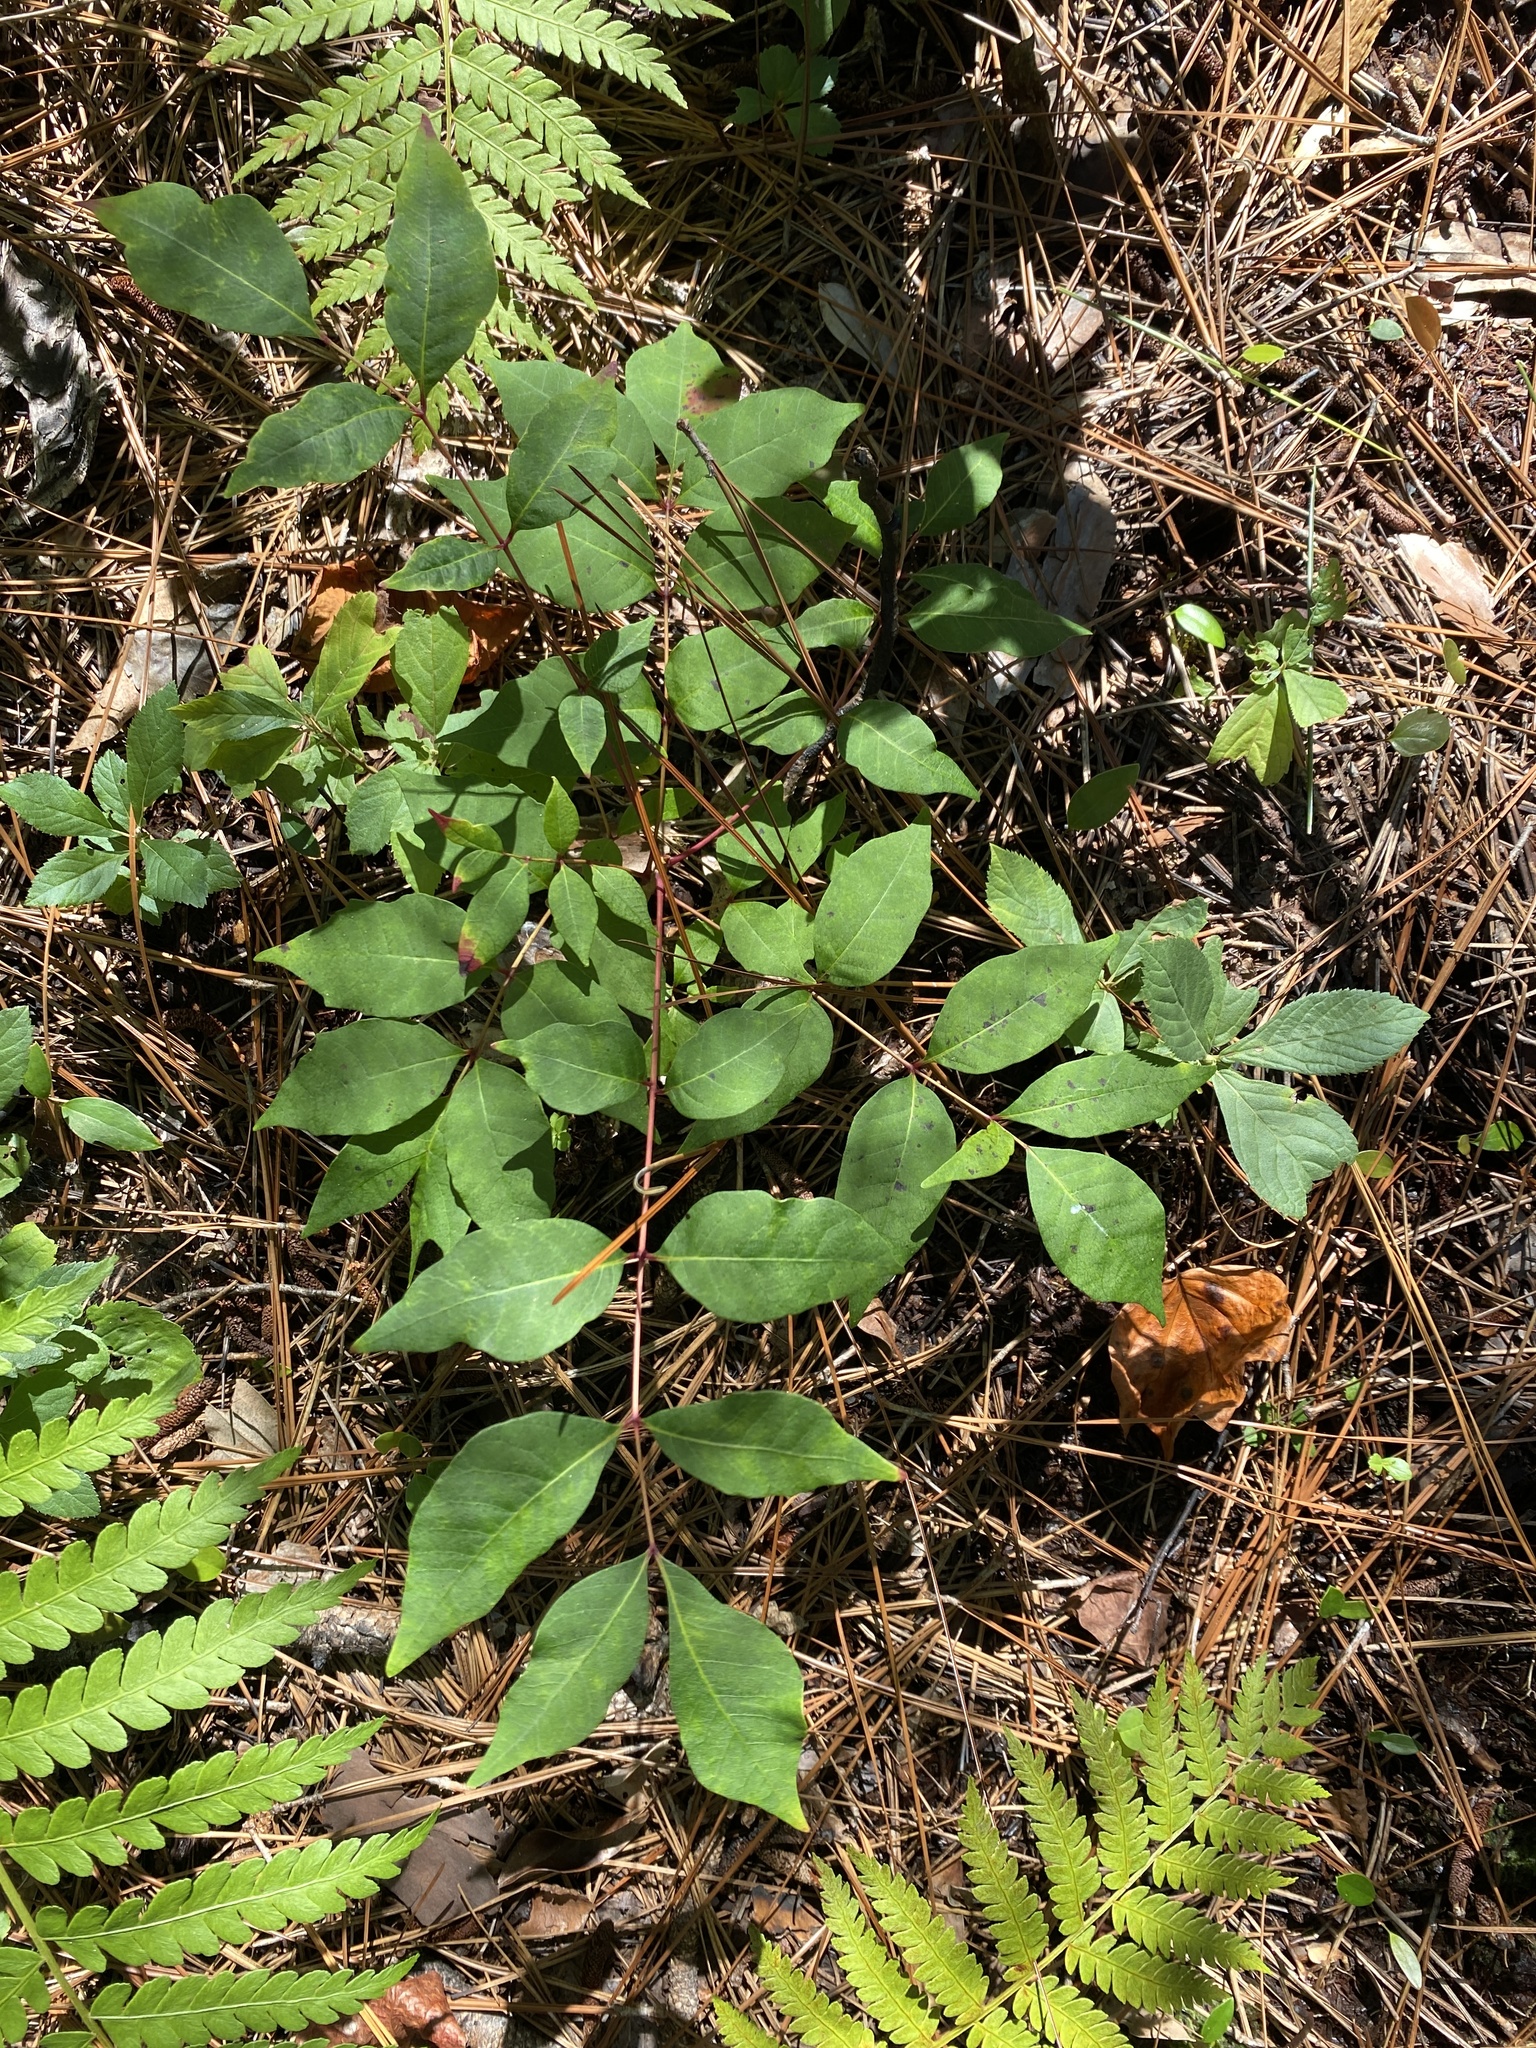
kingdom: Plantae
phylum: Tracheophyta
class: Magnoliopsida
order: Sapindales
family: Anacardiaceae
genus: Toxicodendron
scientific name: Toxicodendron vernix
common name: Poison sumac
